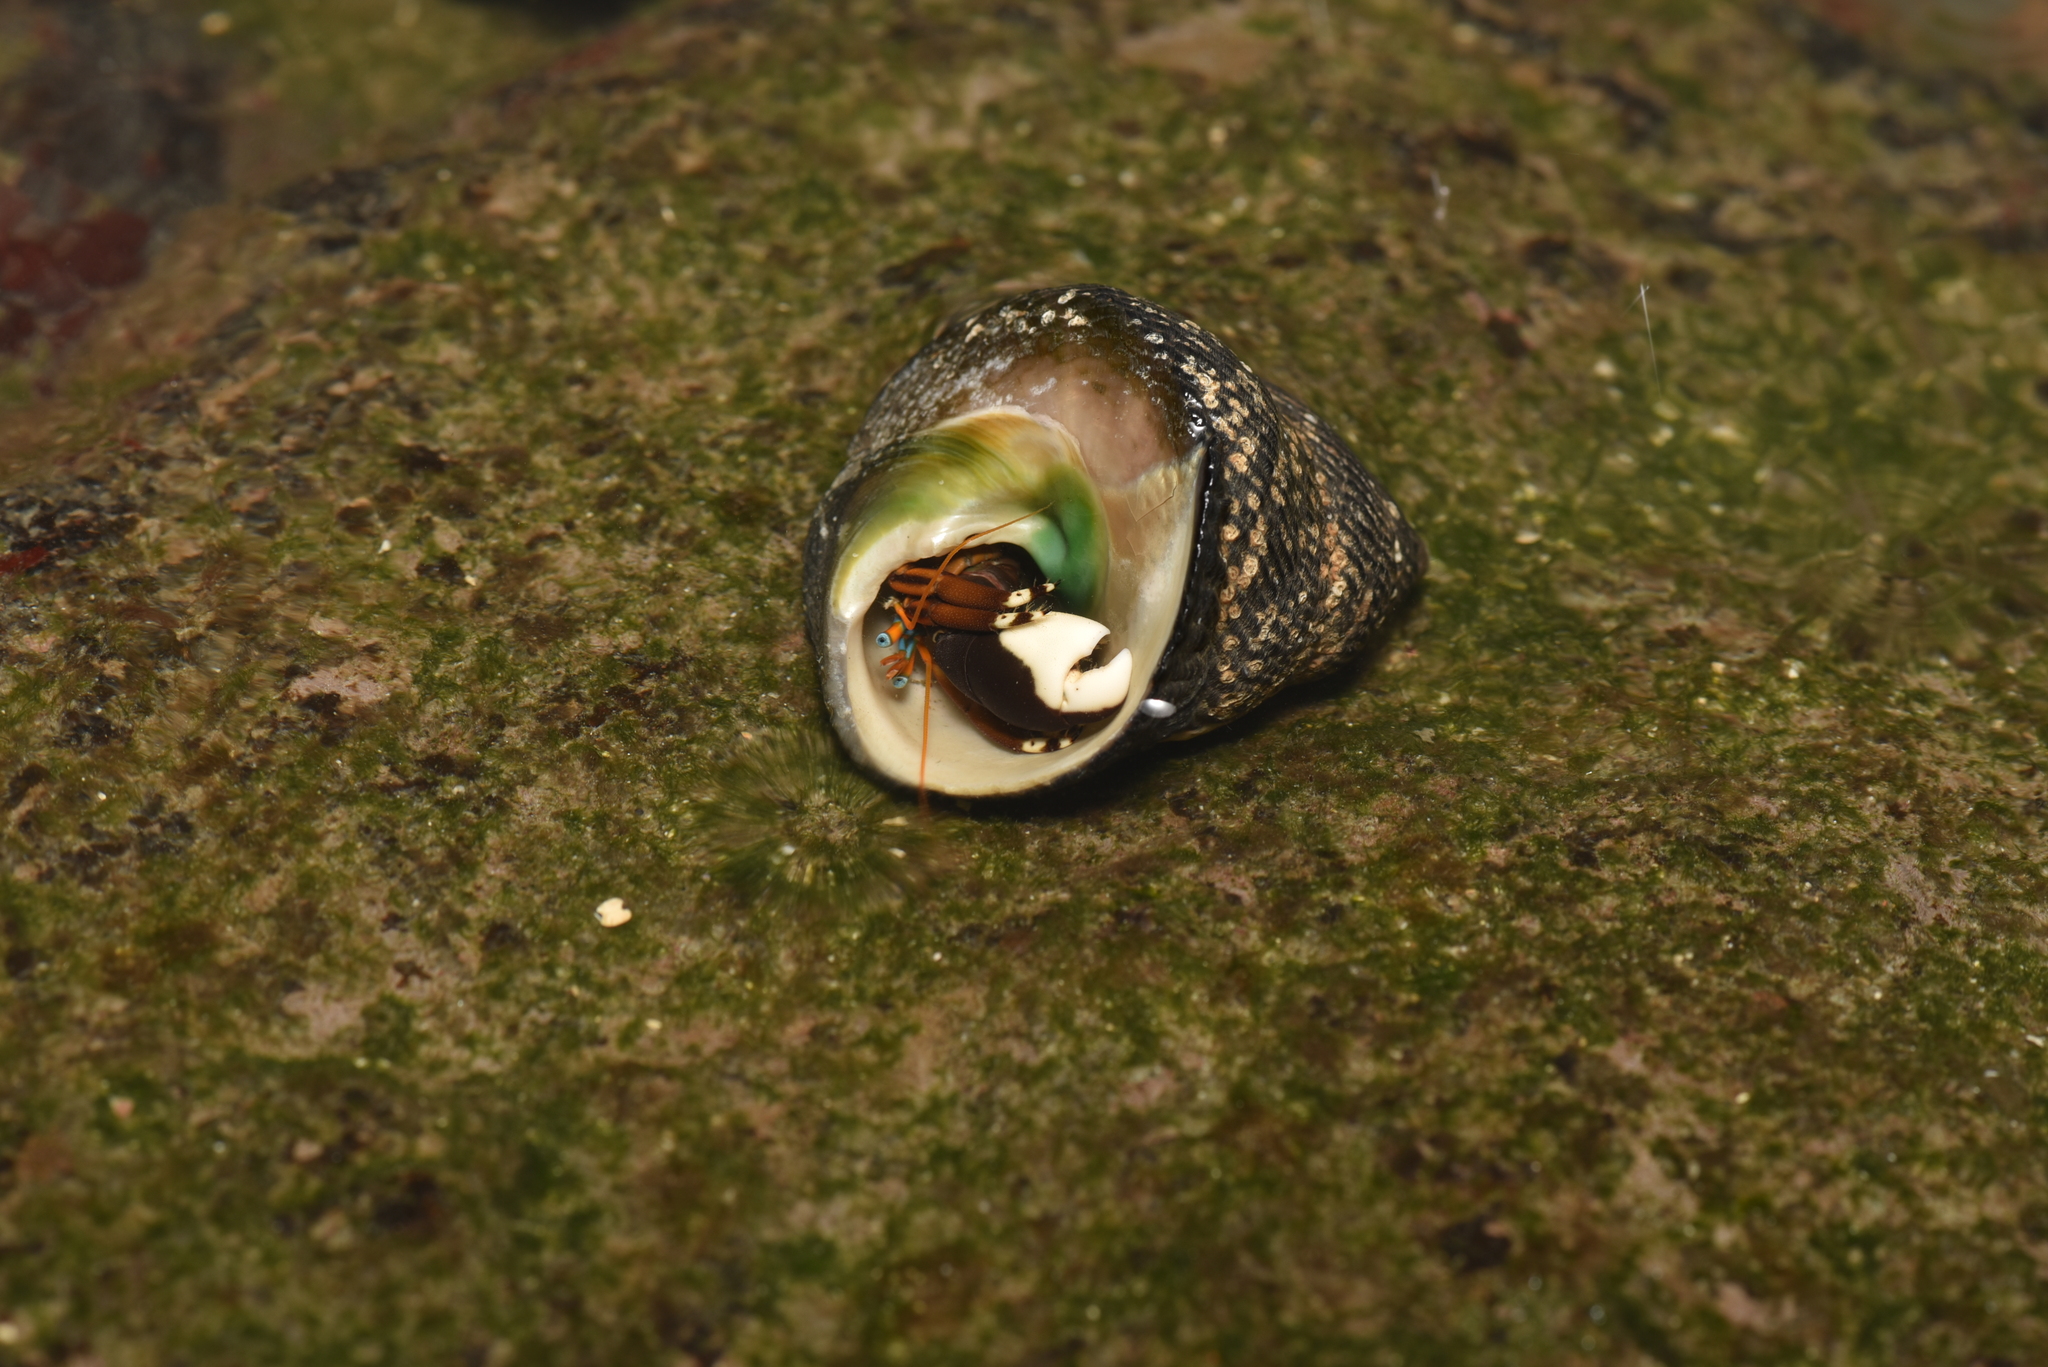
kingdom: Animalia
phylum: Arthropoda
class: Malacostraca
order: Decapoda
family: Diogenidae
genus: Calcinus
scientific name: Calcinus laevimanus
